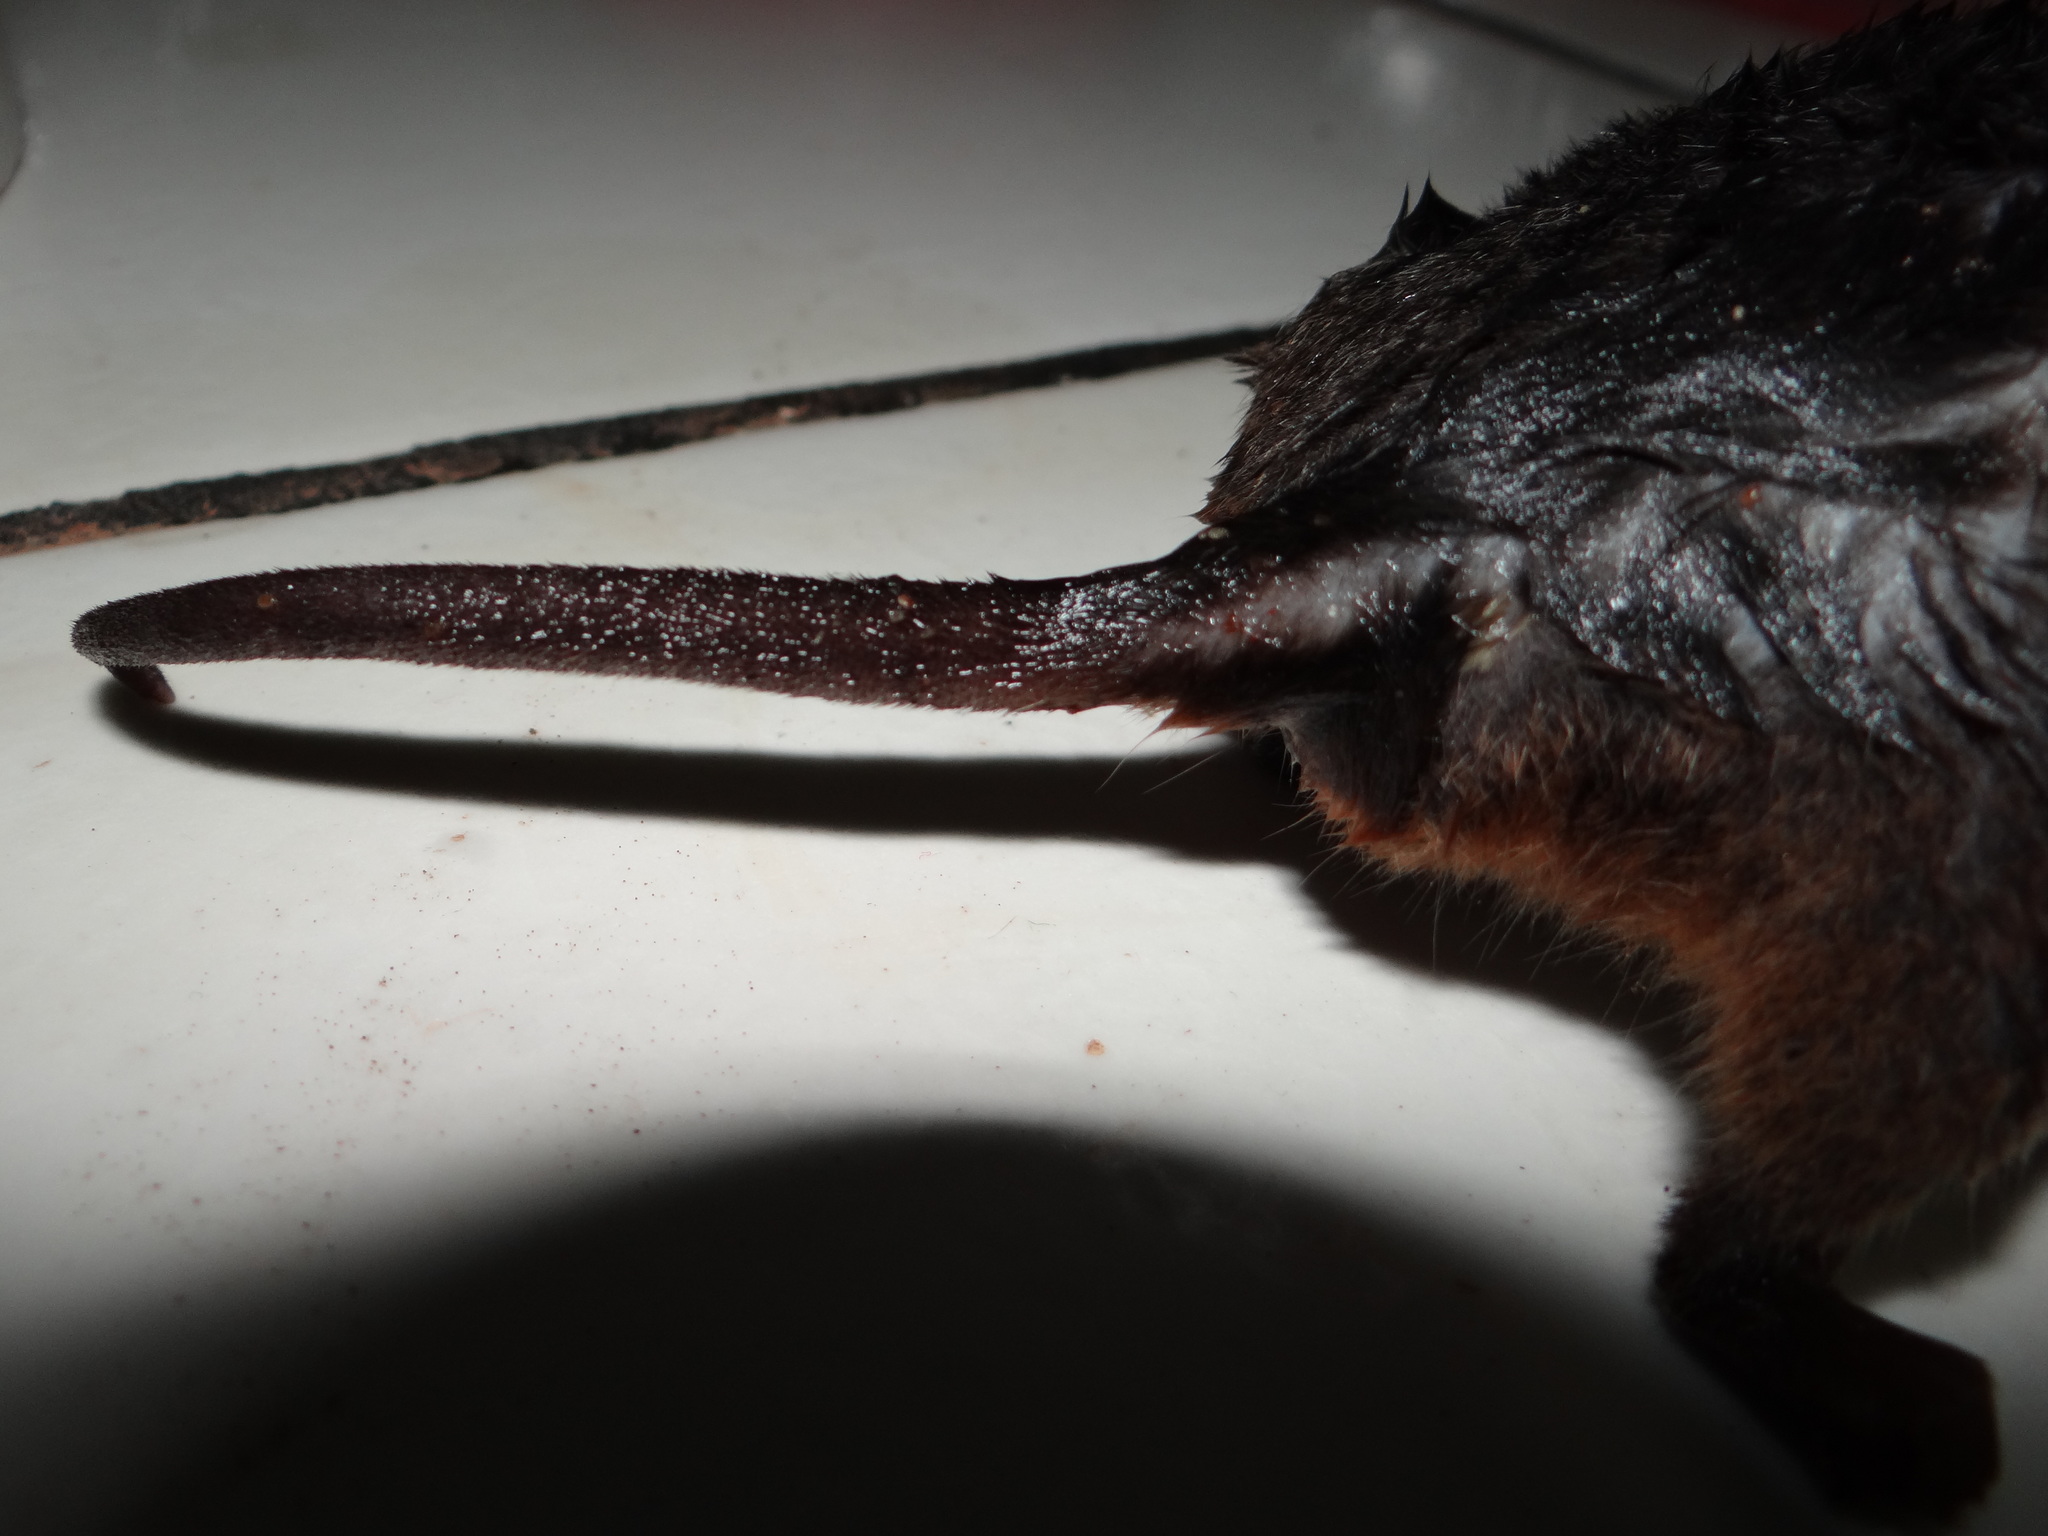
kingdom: Animalia
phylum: Chordata
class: Mammalia
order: Didelphimorphia
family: Didelphidae
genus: Monodelphis
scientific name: Monodelphis domestica
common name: Gray short-tailed opossum
